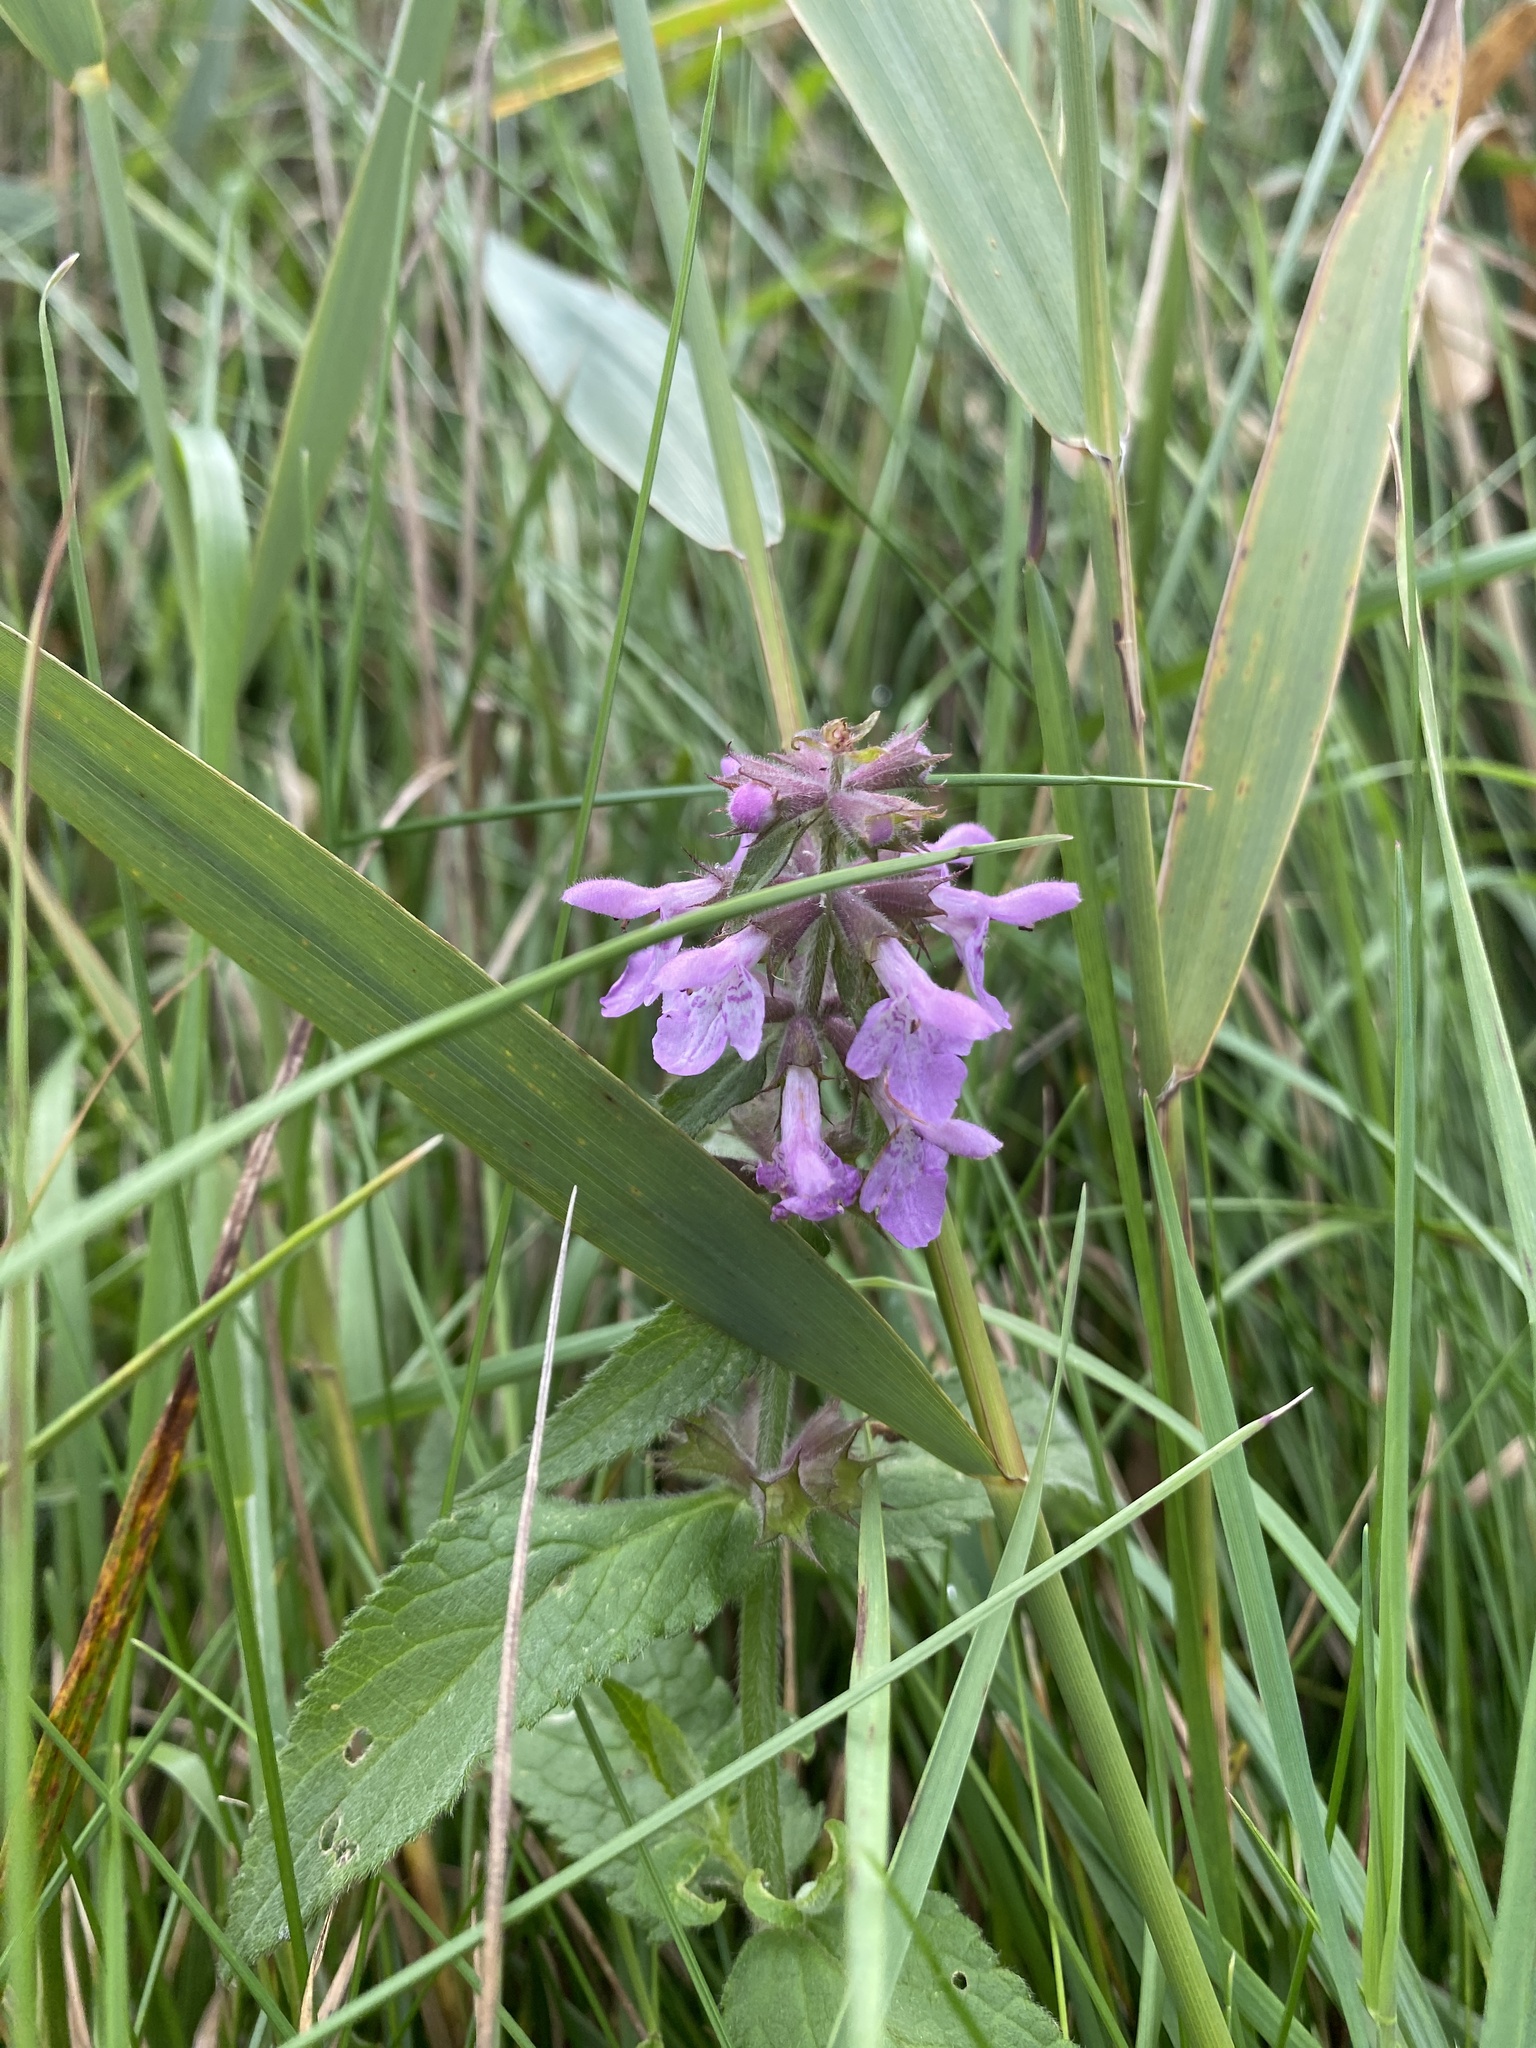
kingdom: Plantae
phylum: Tracheophyta
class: Magnoliopsida
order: Lamiales
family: Lamiaceae
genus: Stachys
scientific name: Stachys palustris
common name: Marsh woundwort
